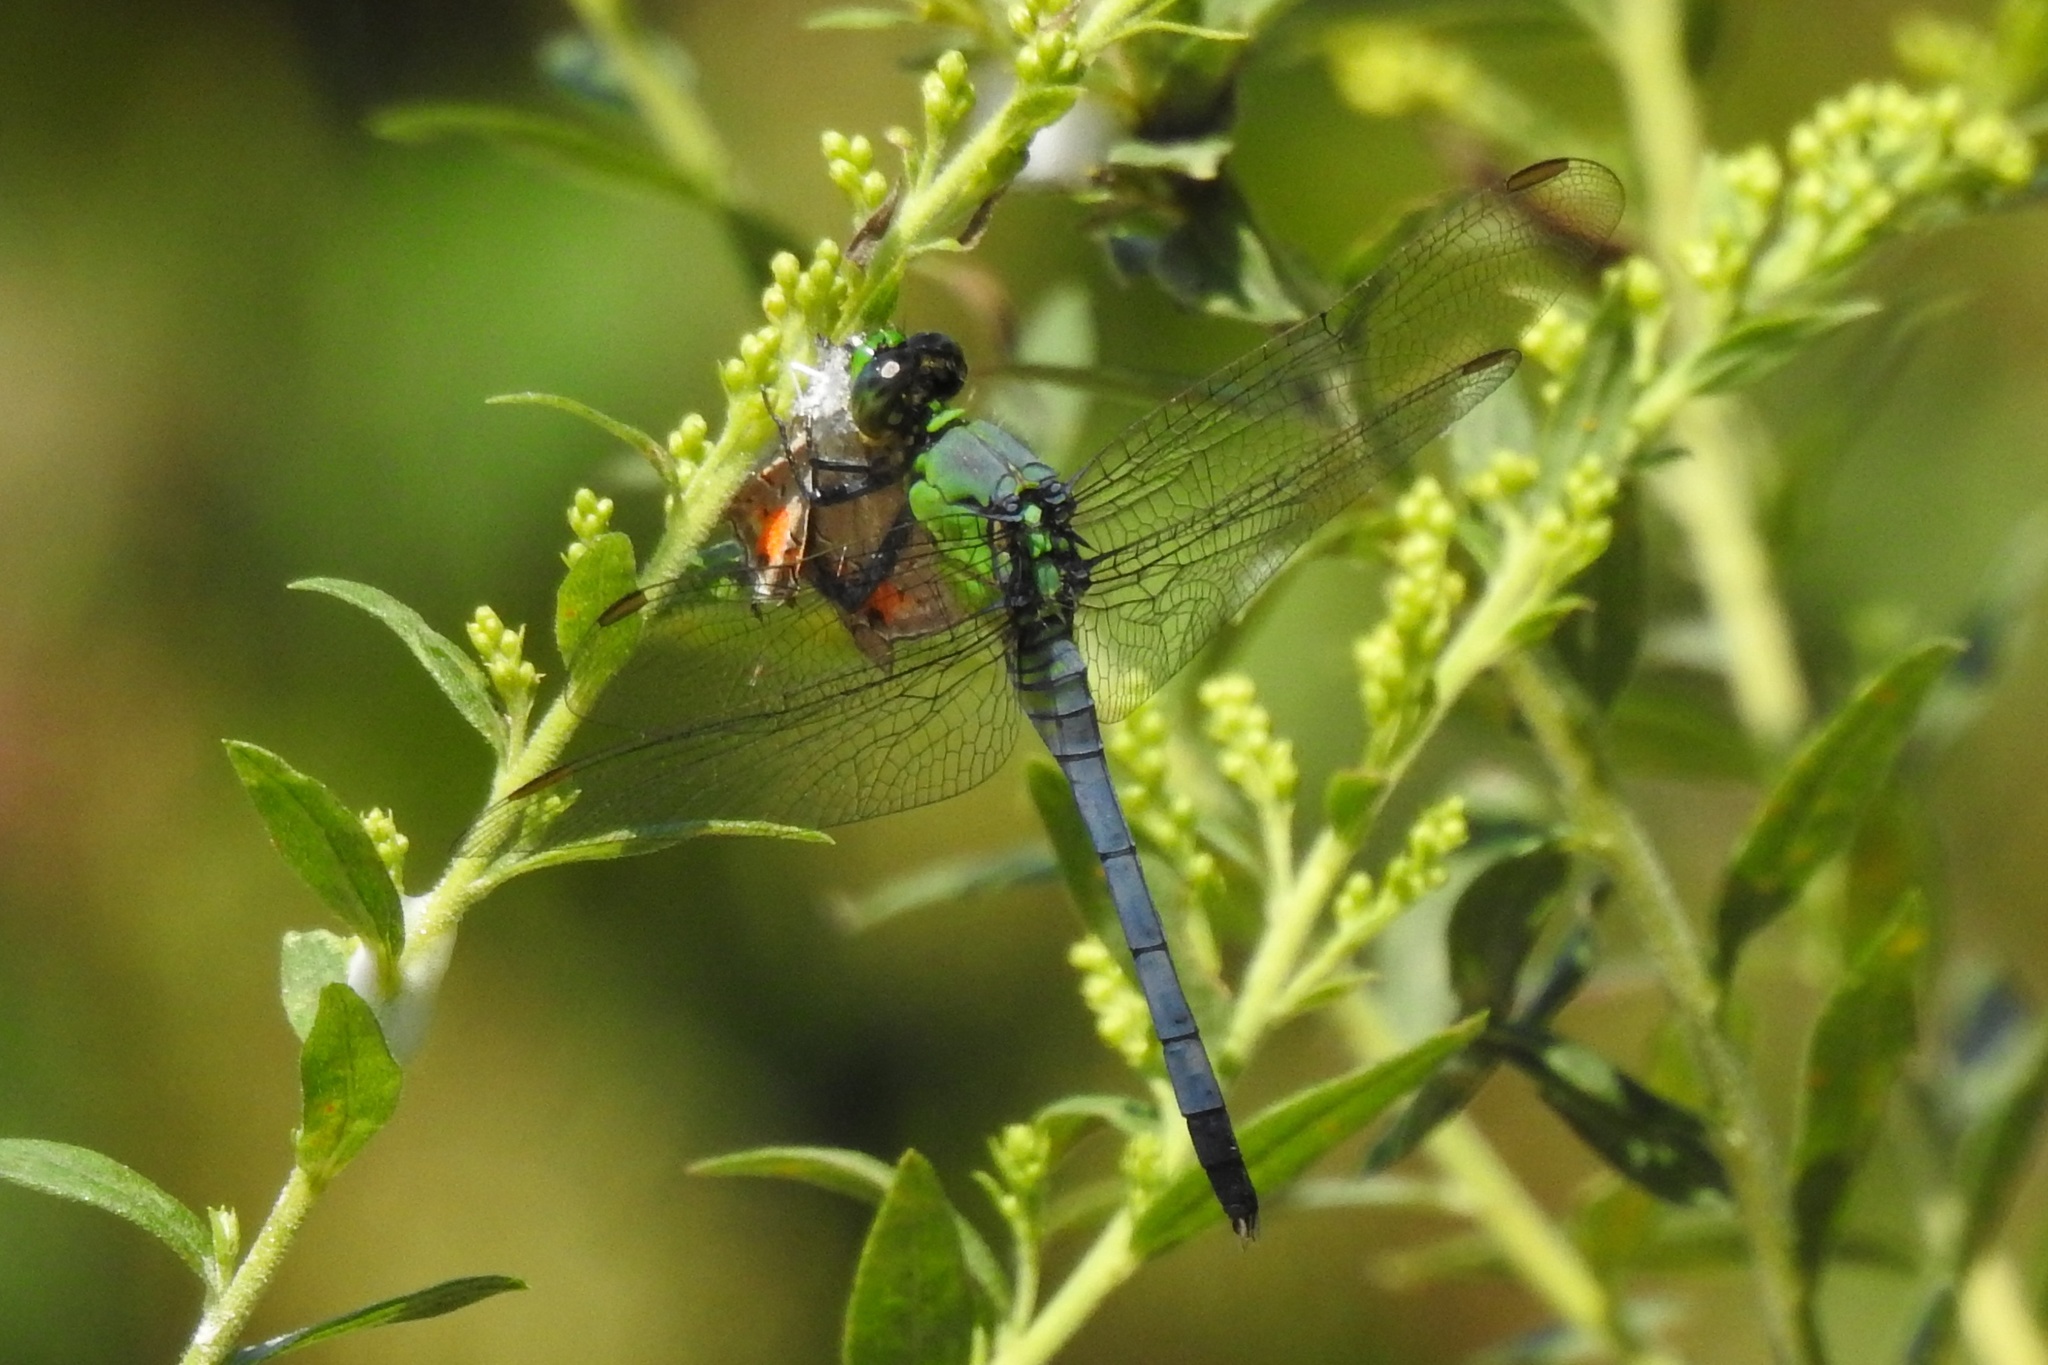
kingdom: Animalia
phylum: Arthropoda
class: Insecta
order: Lepidoptera
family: Lycaenidae
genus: Strymon
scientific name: Strymon melinus
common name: Gray hairstreak
